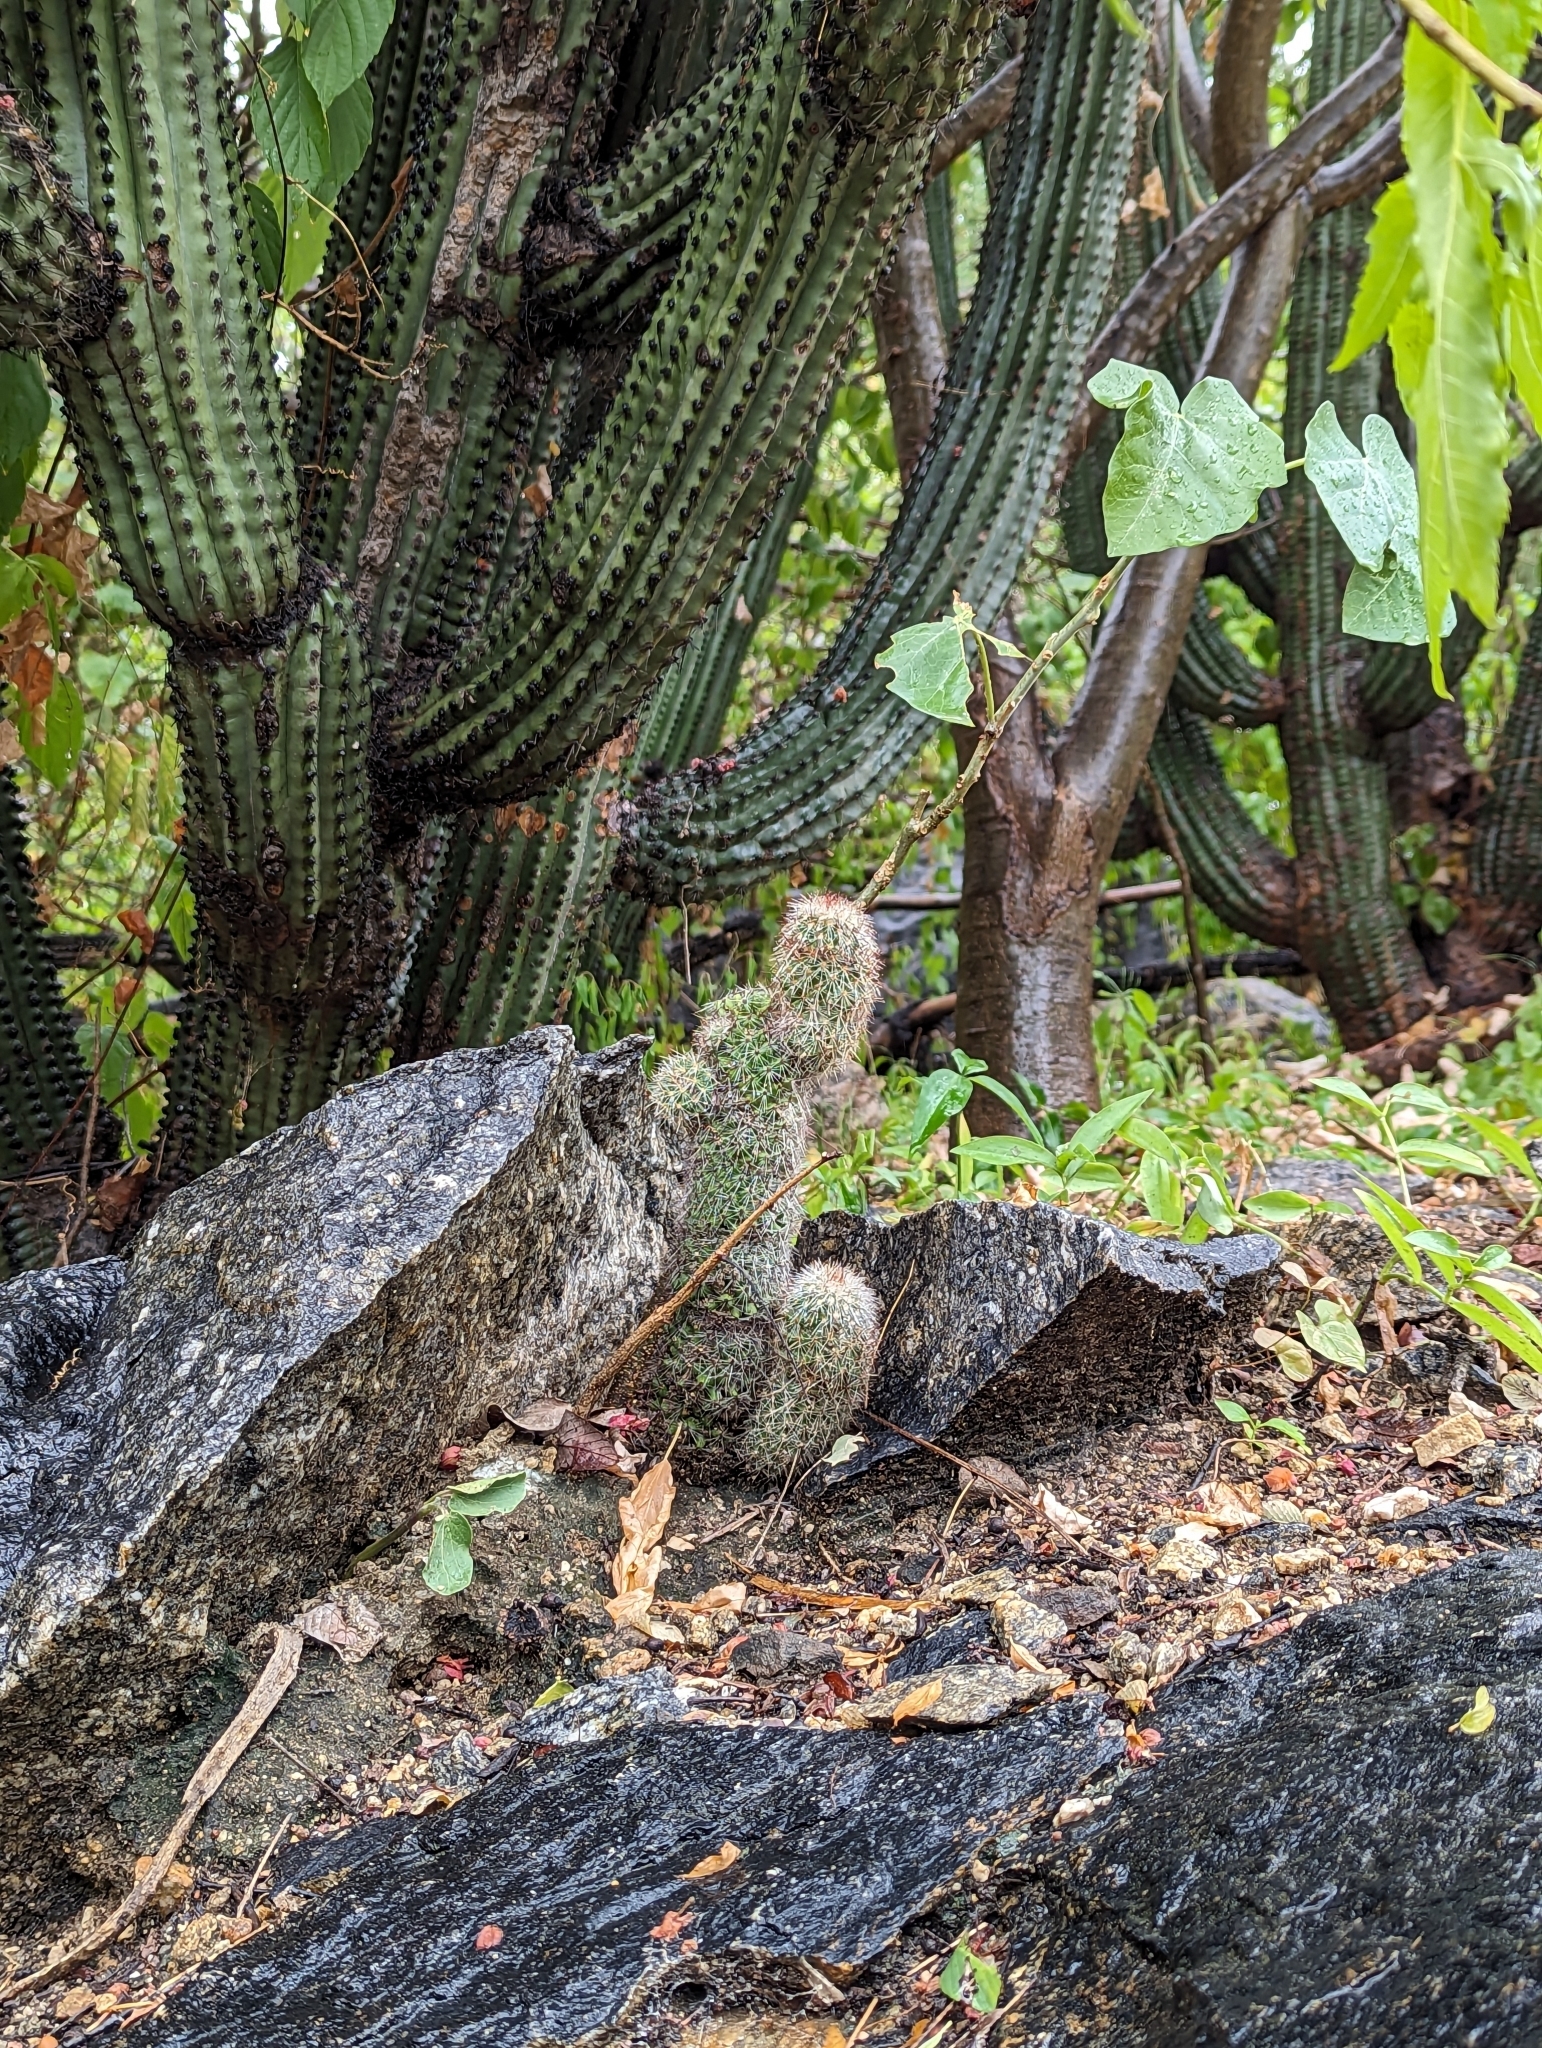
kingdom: Plantae
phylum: Tracheophyta
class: Magnoliopsida
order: Caryophyllales
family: Cactaceae
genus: Cochemiea
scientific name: Cochemiea phitauiana
